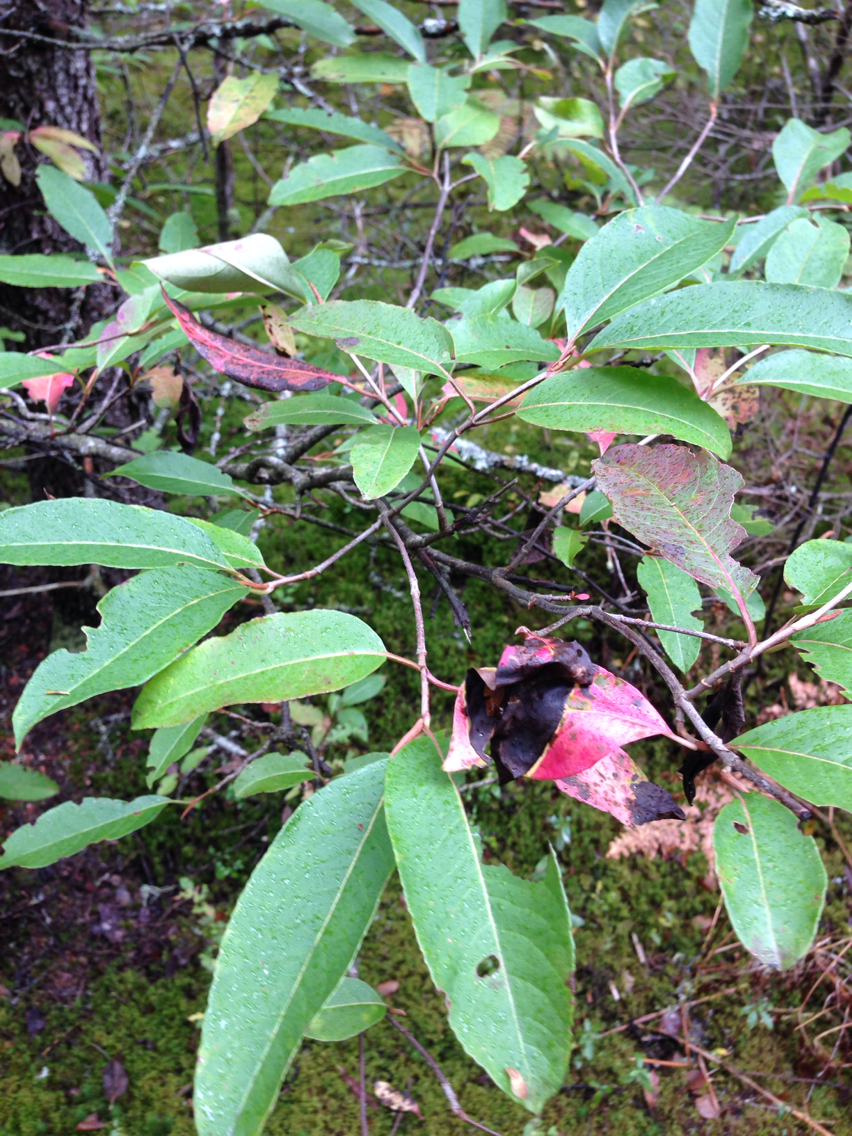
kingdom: Plantae
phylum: Tracheophyta
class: Magnoliopsida
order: Dipsacales
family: Viburnaceae
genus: Viburnum
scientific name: Viburnum cassinoides
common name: Swamp haw
